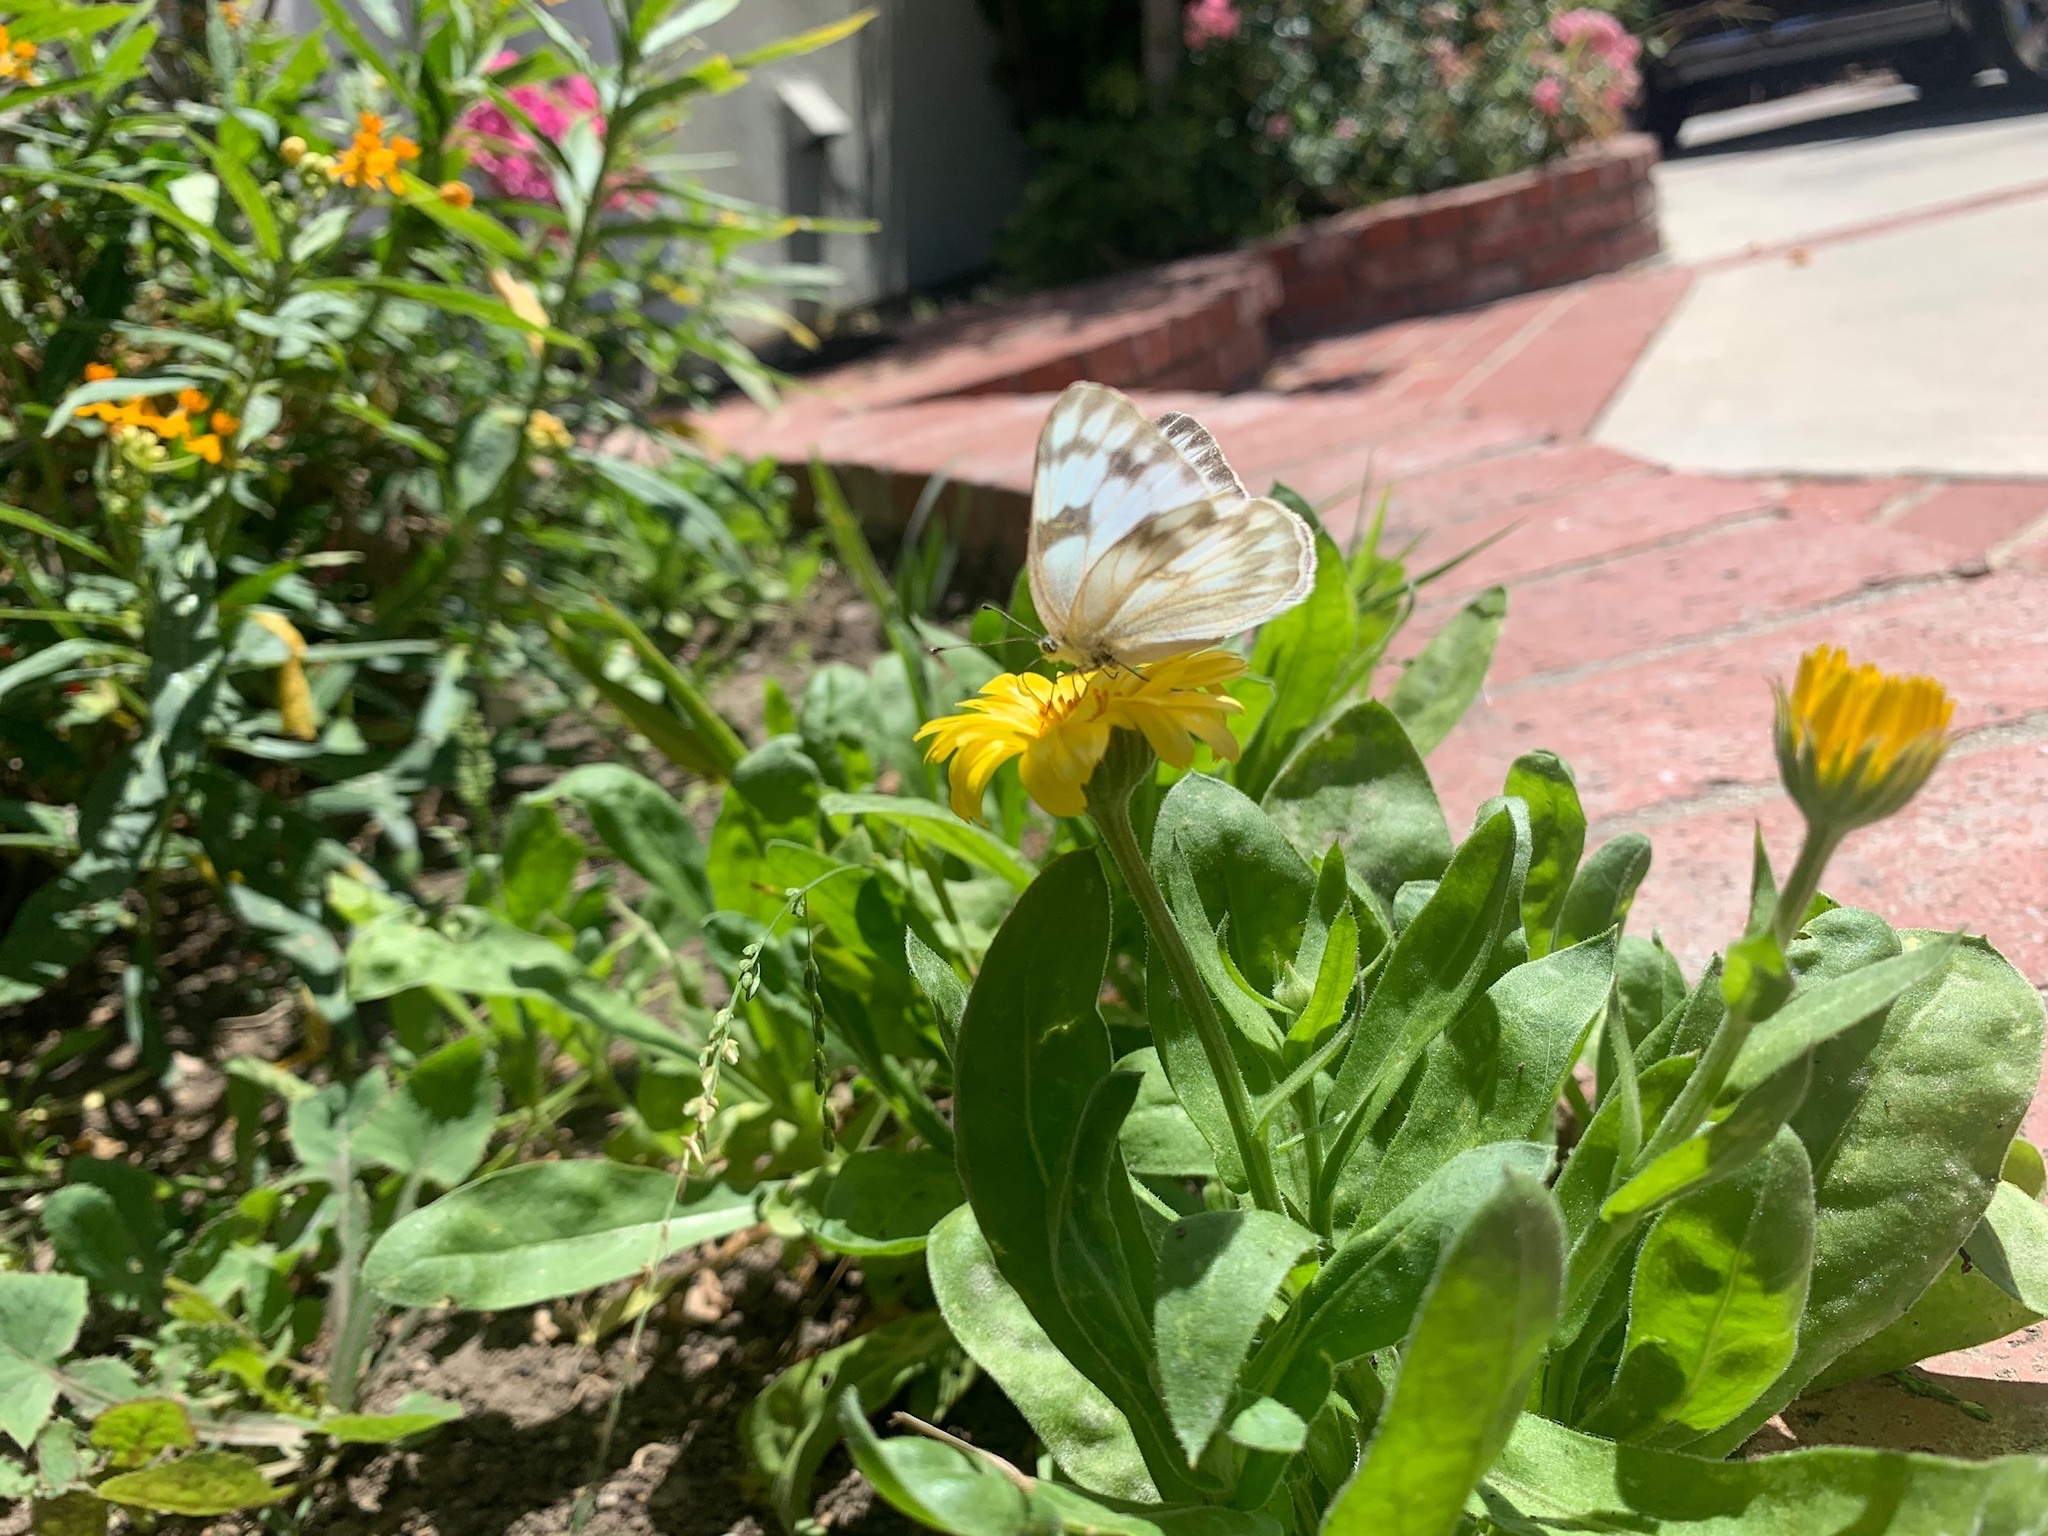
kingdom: Animalia
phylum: Arthropoda
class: Insecta
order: Lepidoptera
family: Pieridae
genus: Pontia
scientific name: Pontia protodice
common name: Checkered white
